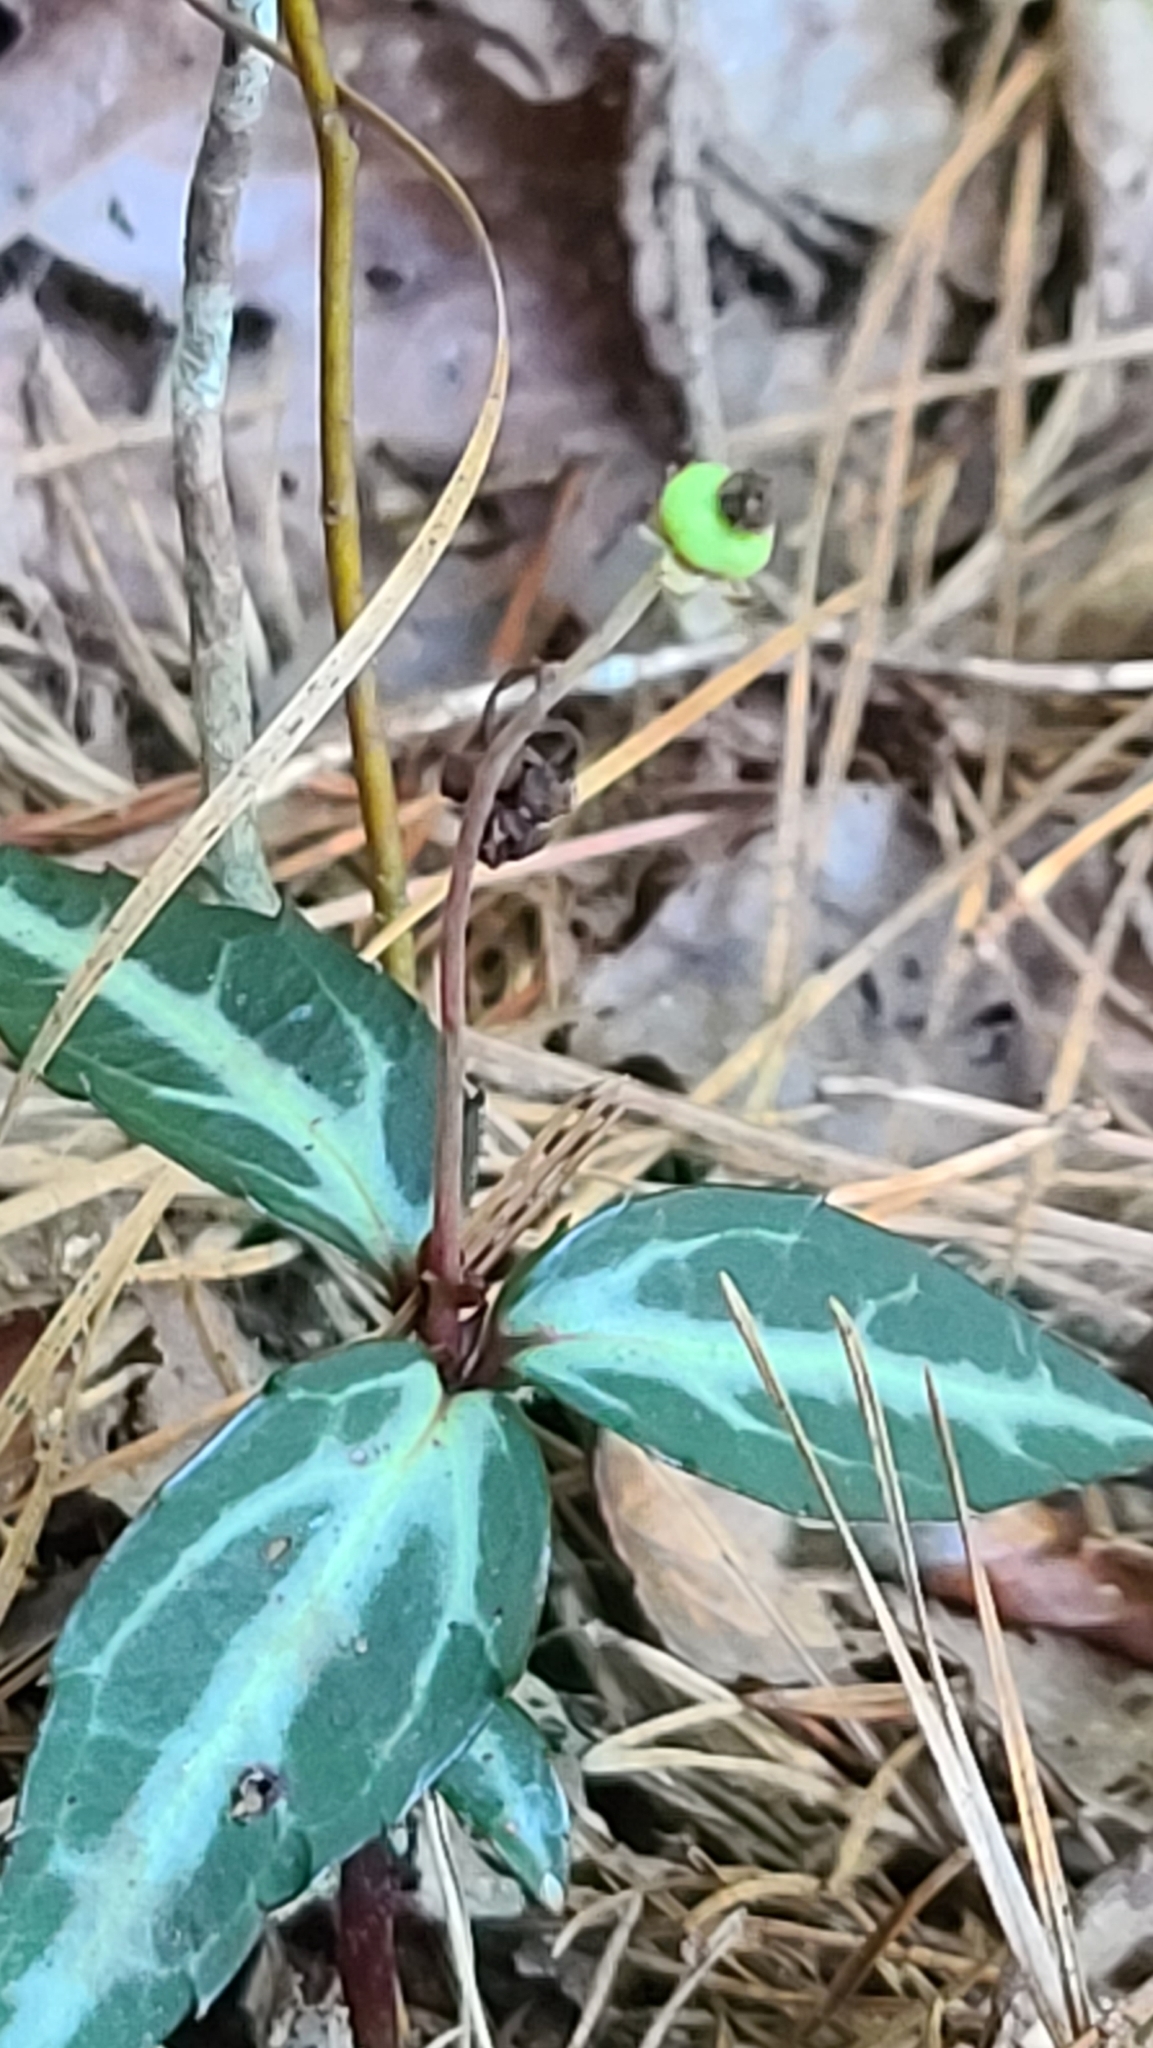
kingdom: Plantae
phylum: Tracheophyta
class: Magnoliopsida
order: Ericales
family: Ericaceae
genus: Chimaphila
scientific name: Chimaphila maculata
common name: Spotted pipsissewa
